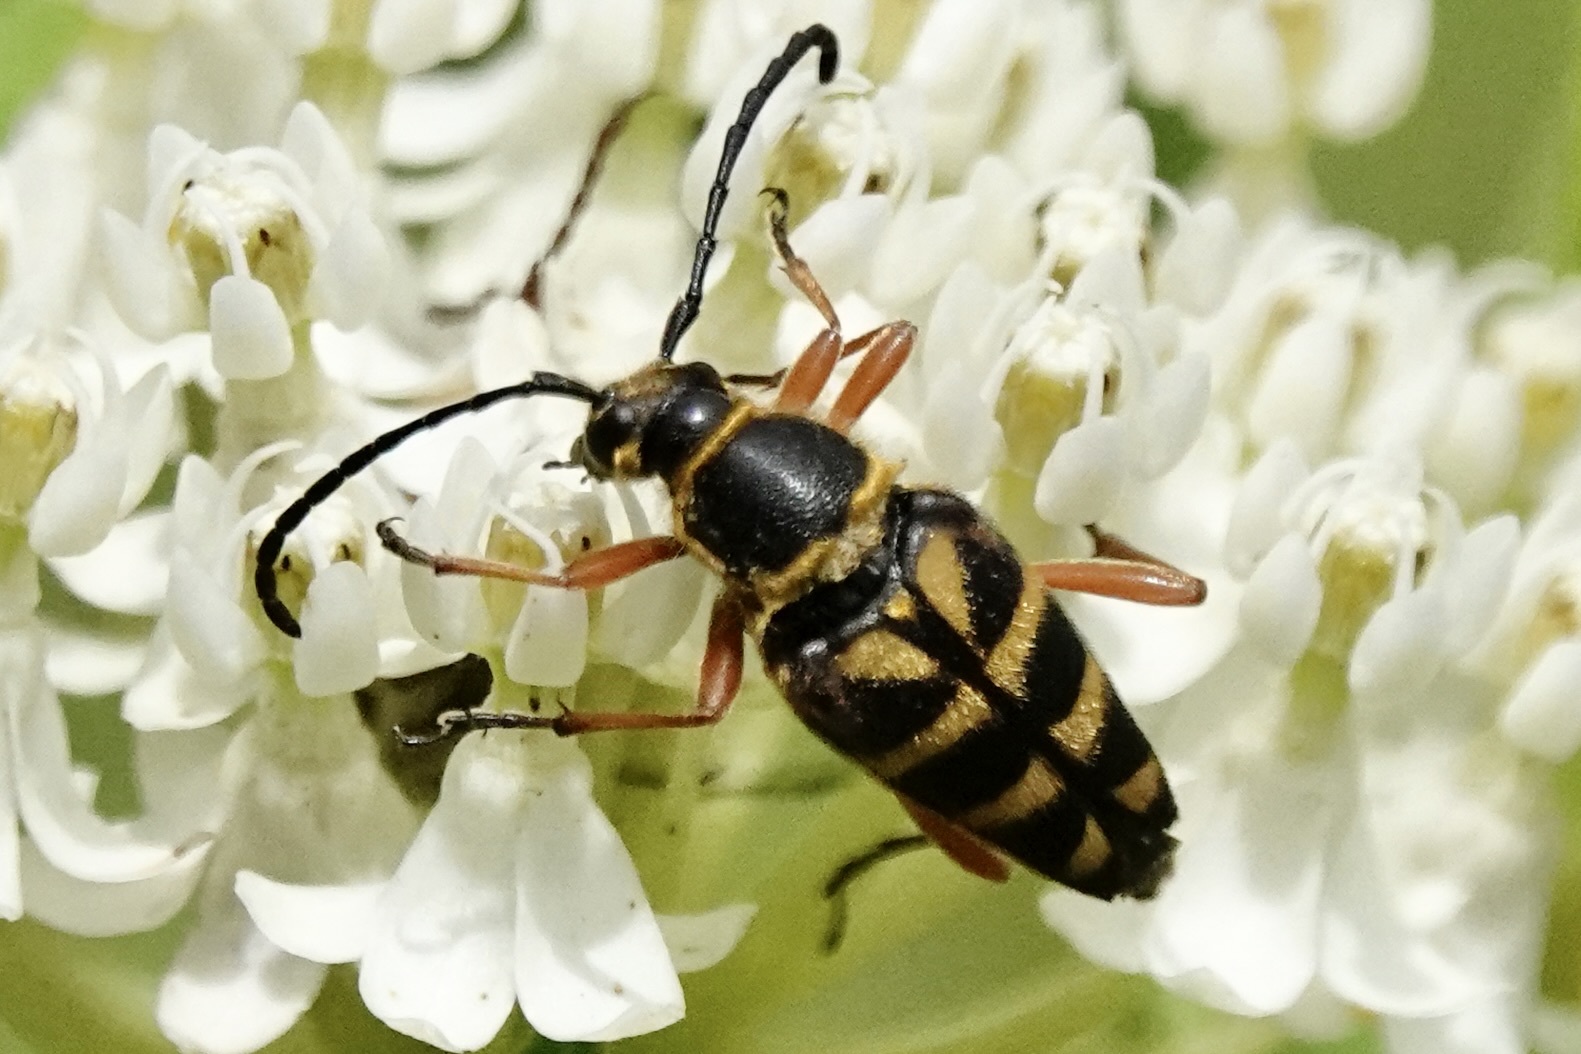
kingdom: Animalia
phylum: Arthropoda
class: Insecta
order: Coleoptera
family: Cerambycidae
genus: Typocerus
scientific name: Typocerus zebra
